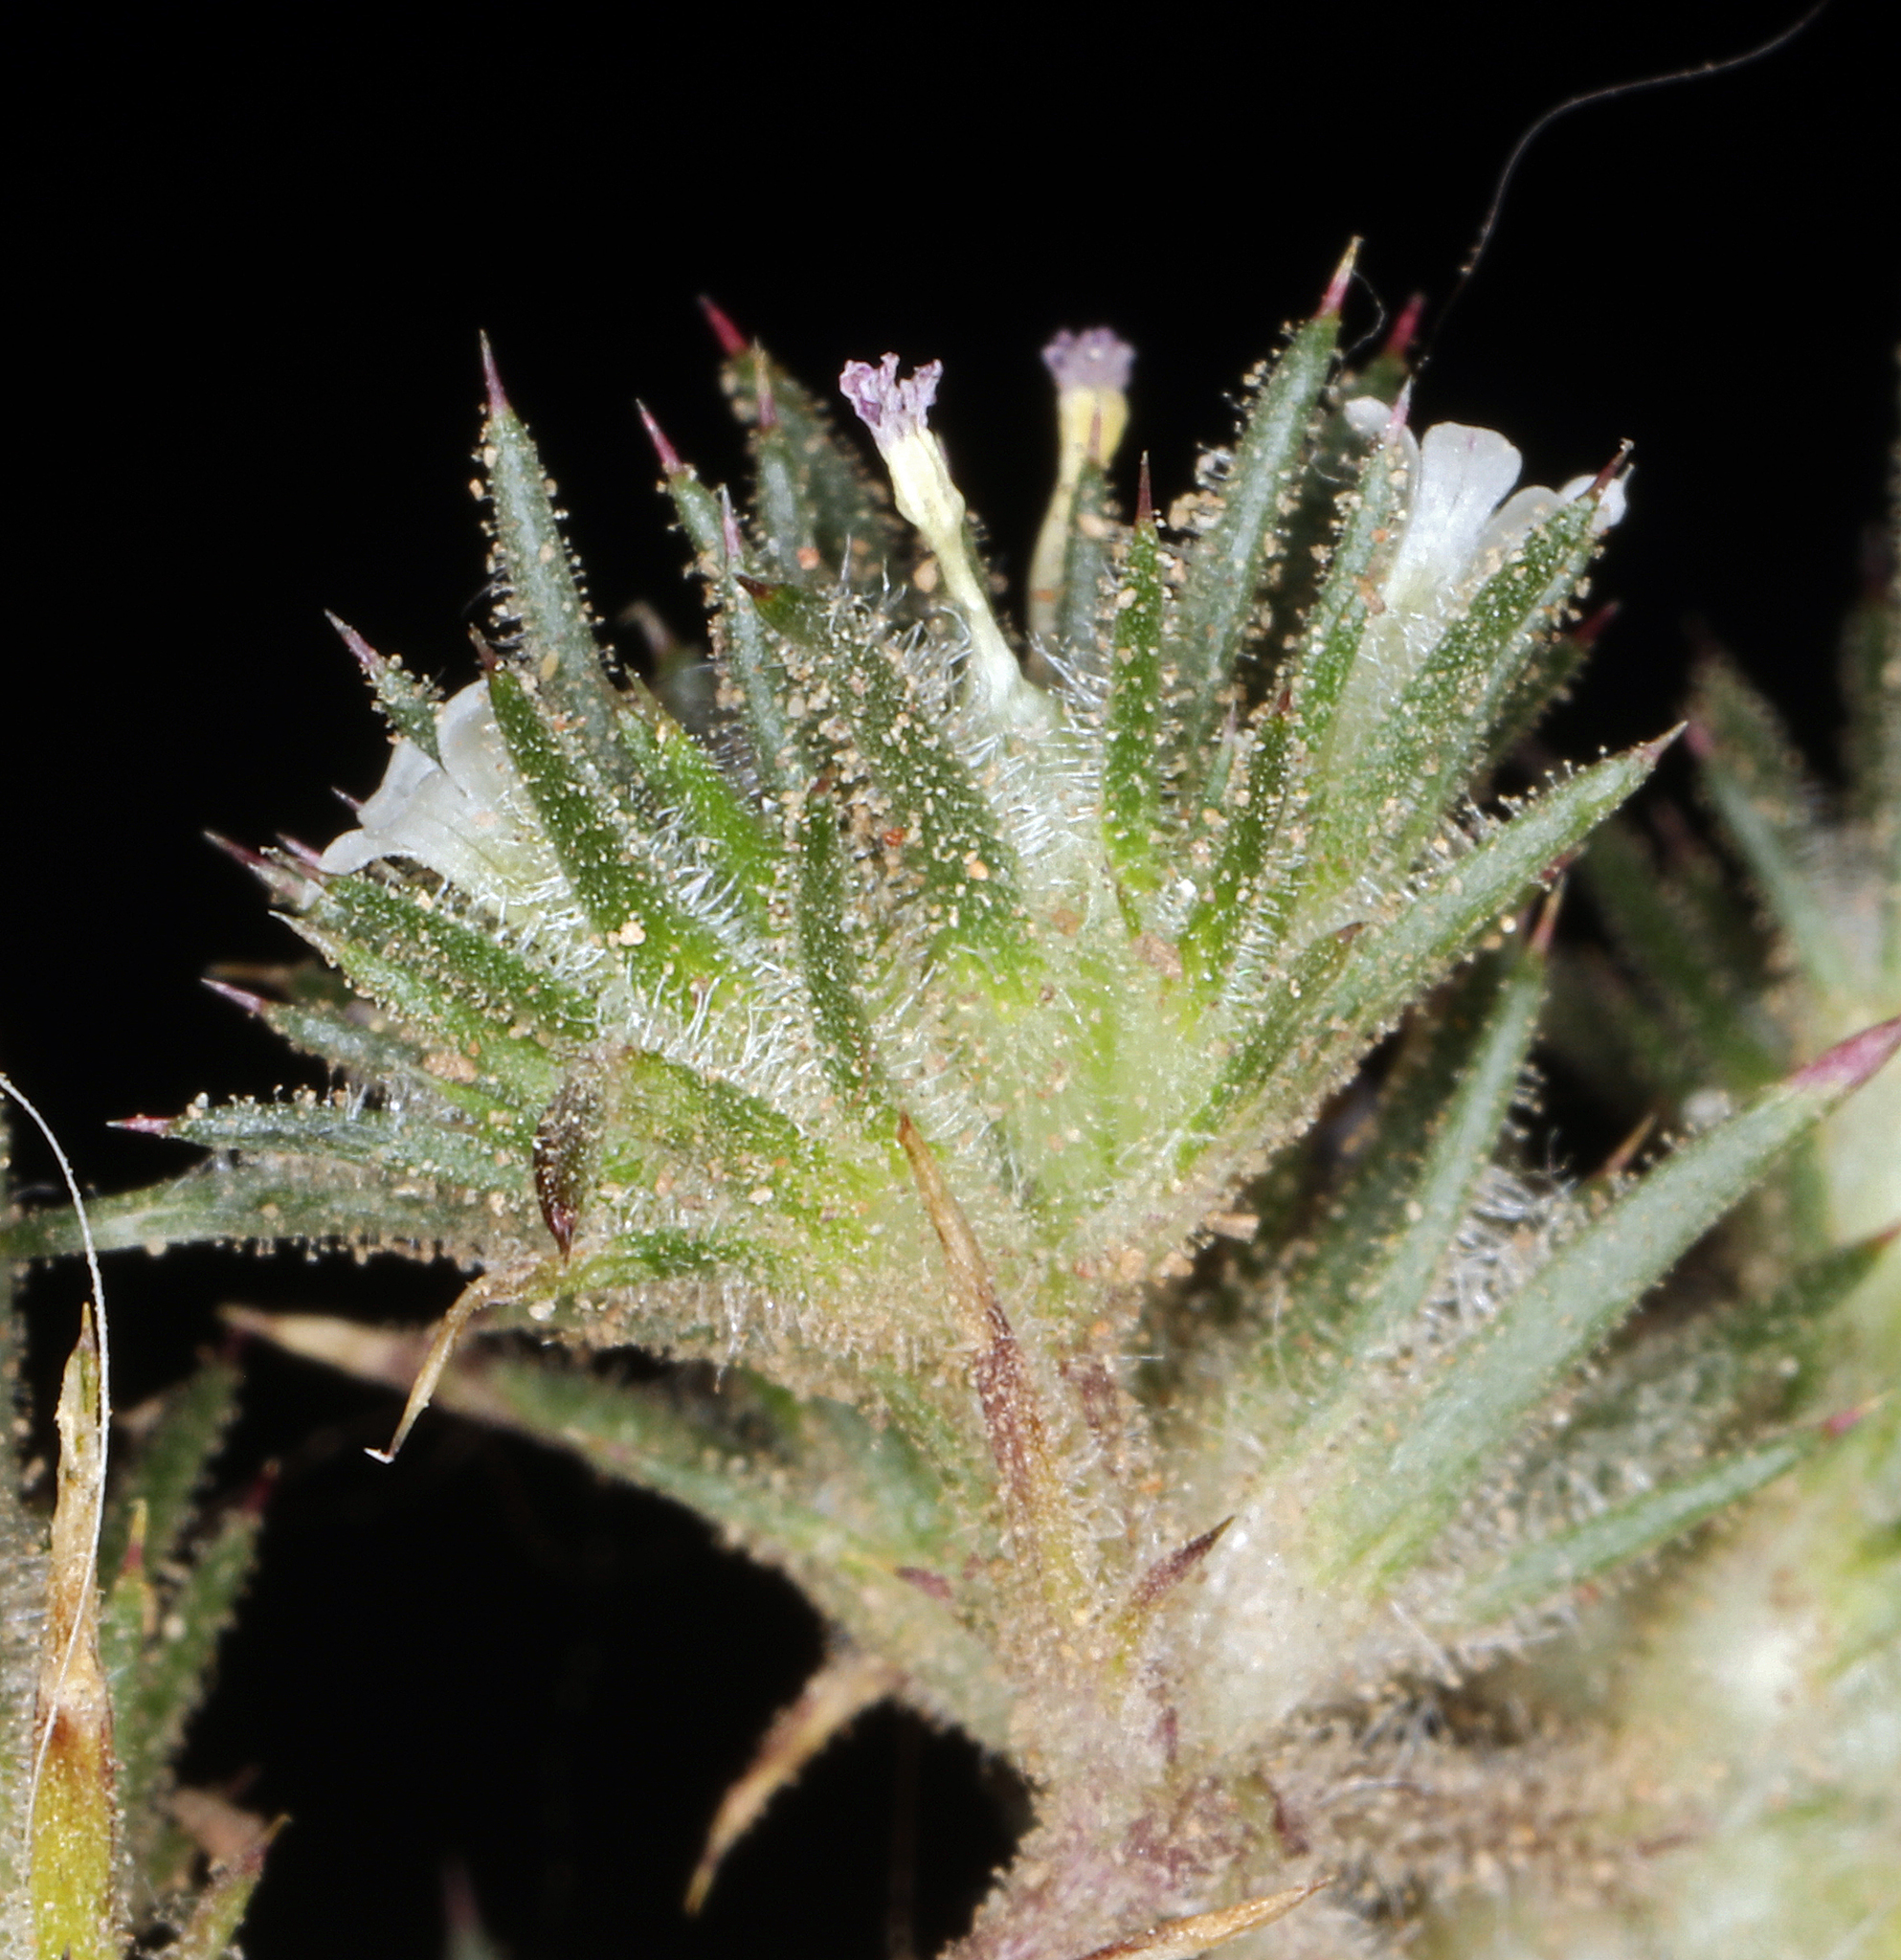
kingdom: Plantae
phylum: Tracheophyta
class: Magnoliopsida
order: Ericales
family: Polemoniaceae
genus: Navarretia
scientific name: Navarretia divaricata
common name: Mountain navarretia
